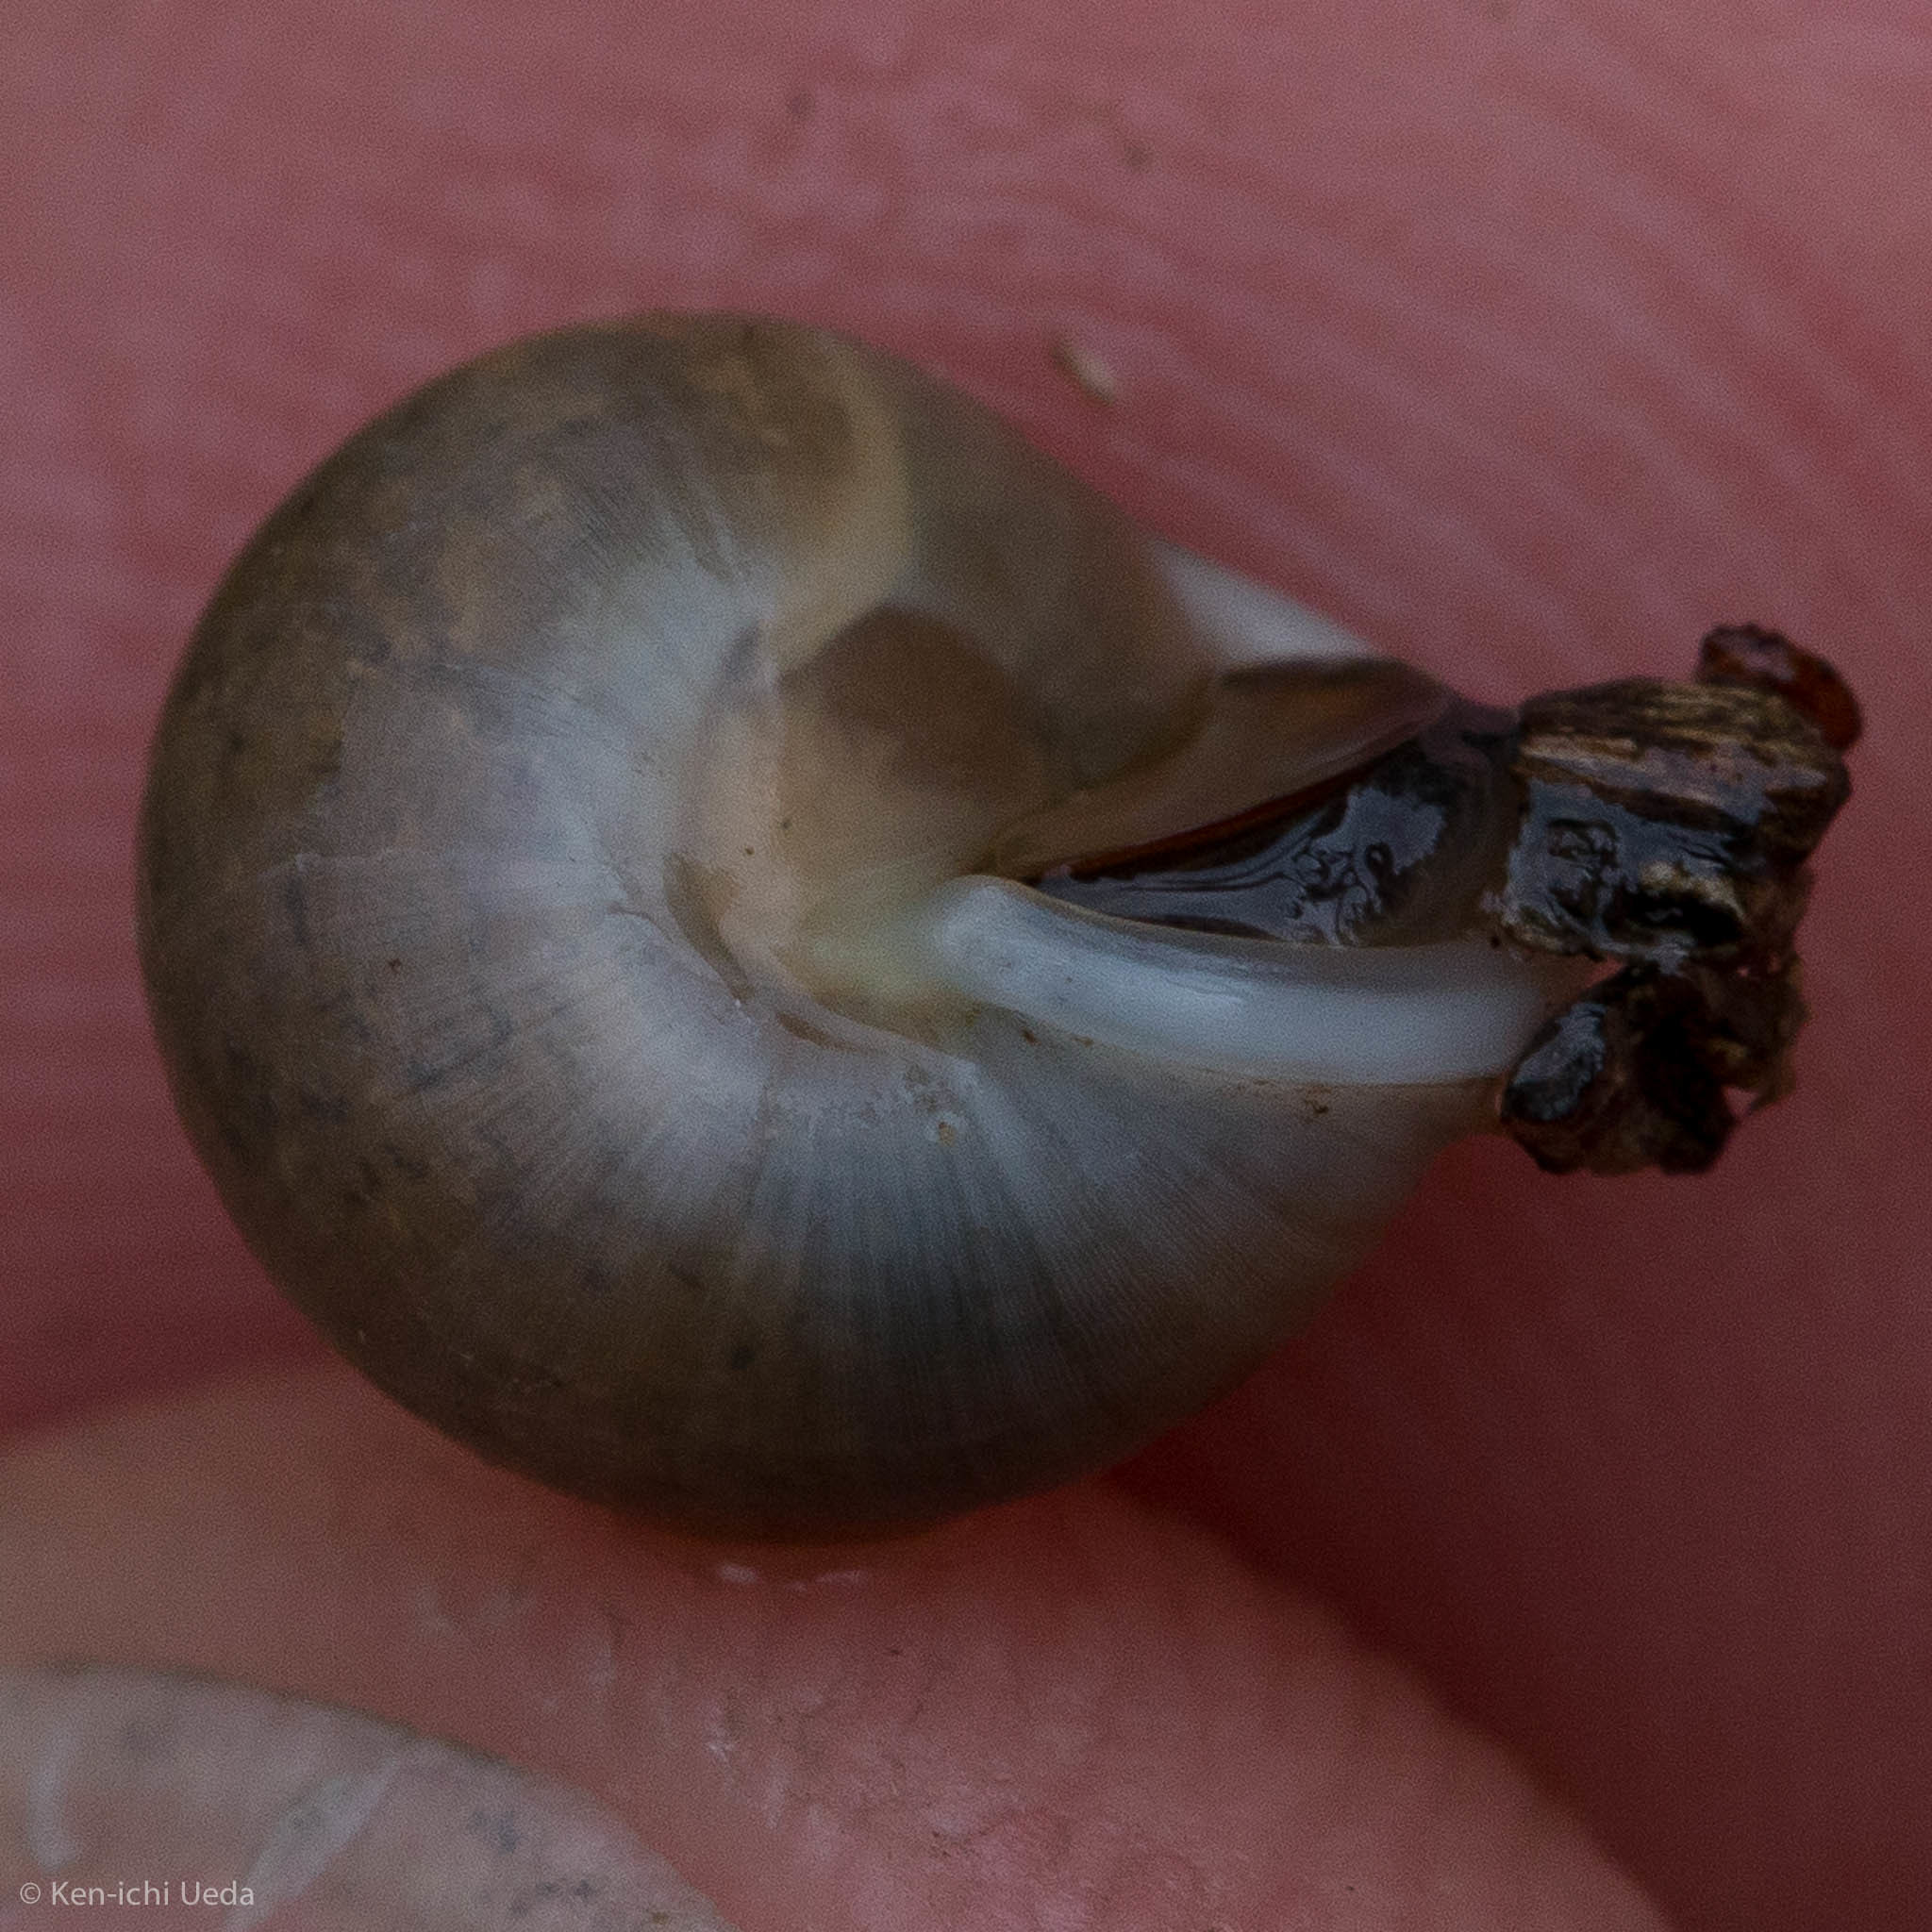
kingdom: Animalia
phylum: Mollusca
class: Gastropoda
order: Cycloneritida
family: Helicinidae
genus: Helicina
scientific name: Helicina orbiculata
